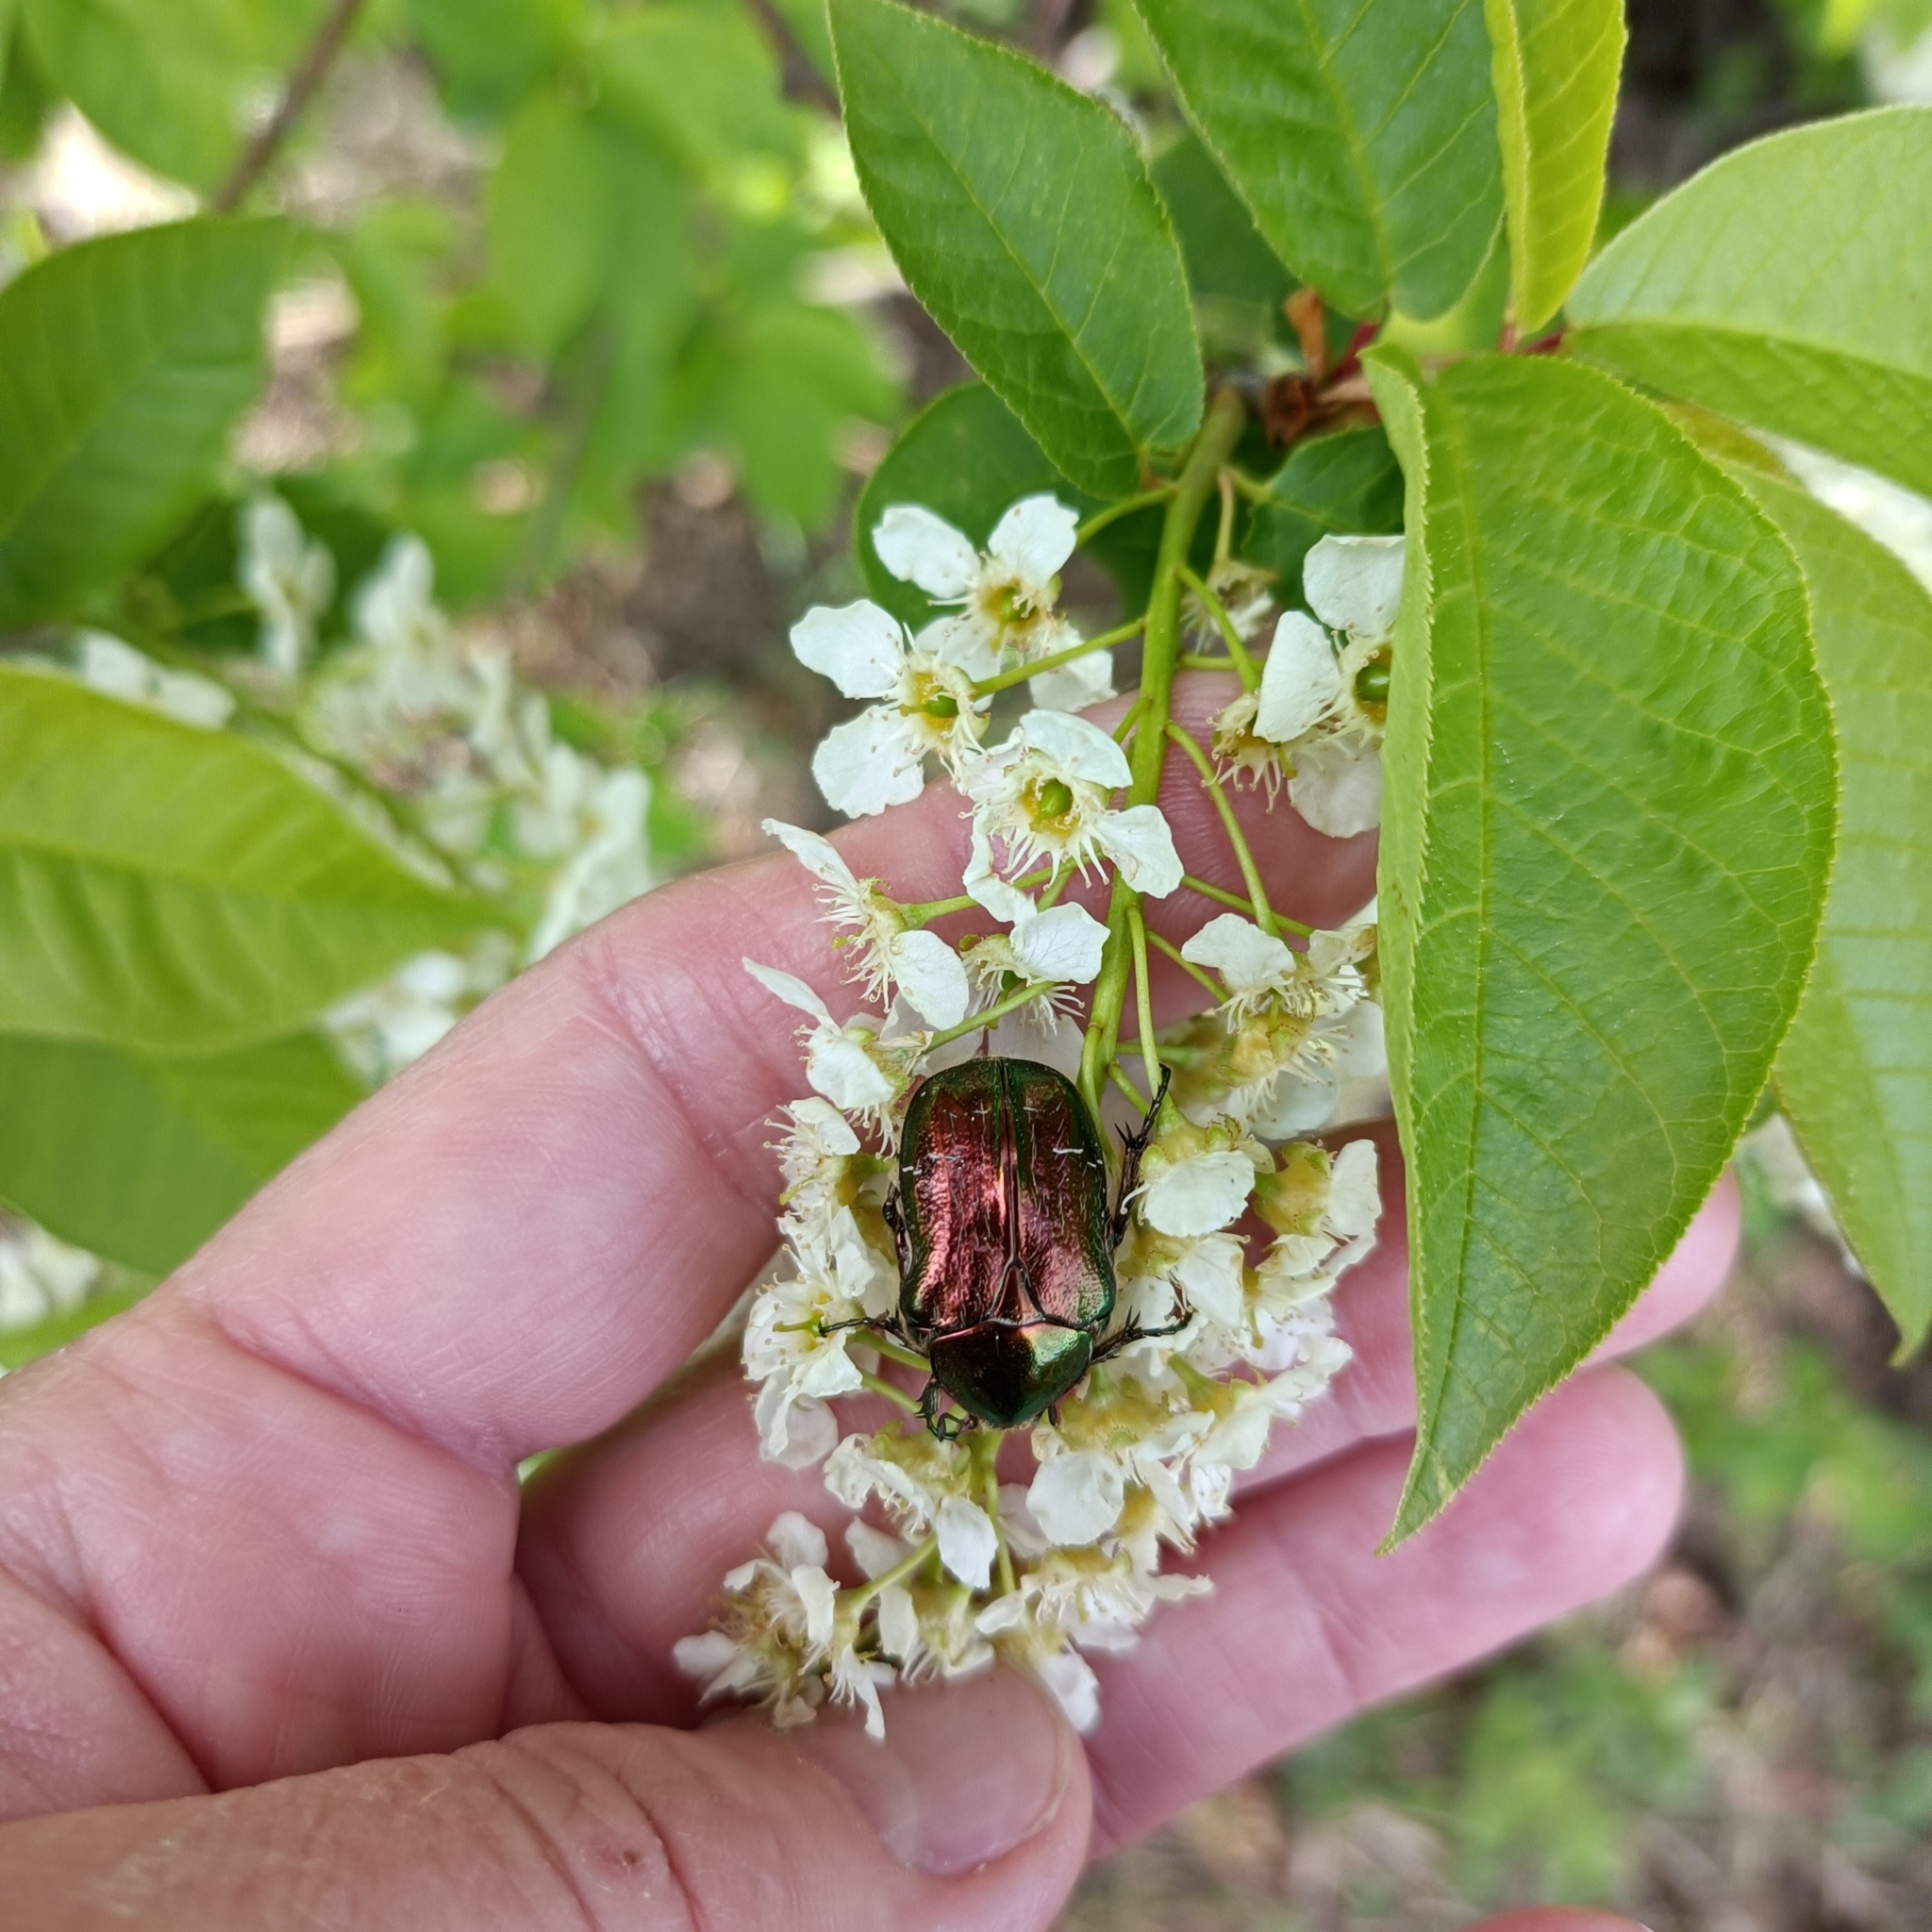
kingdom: Animalia
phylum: Arthropoda
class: Insecta
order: Coleoptera
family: Scarabaeidae
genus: Cetonia
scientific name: Cetonia aurata
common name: Rose chafer
